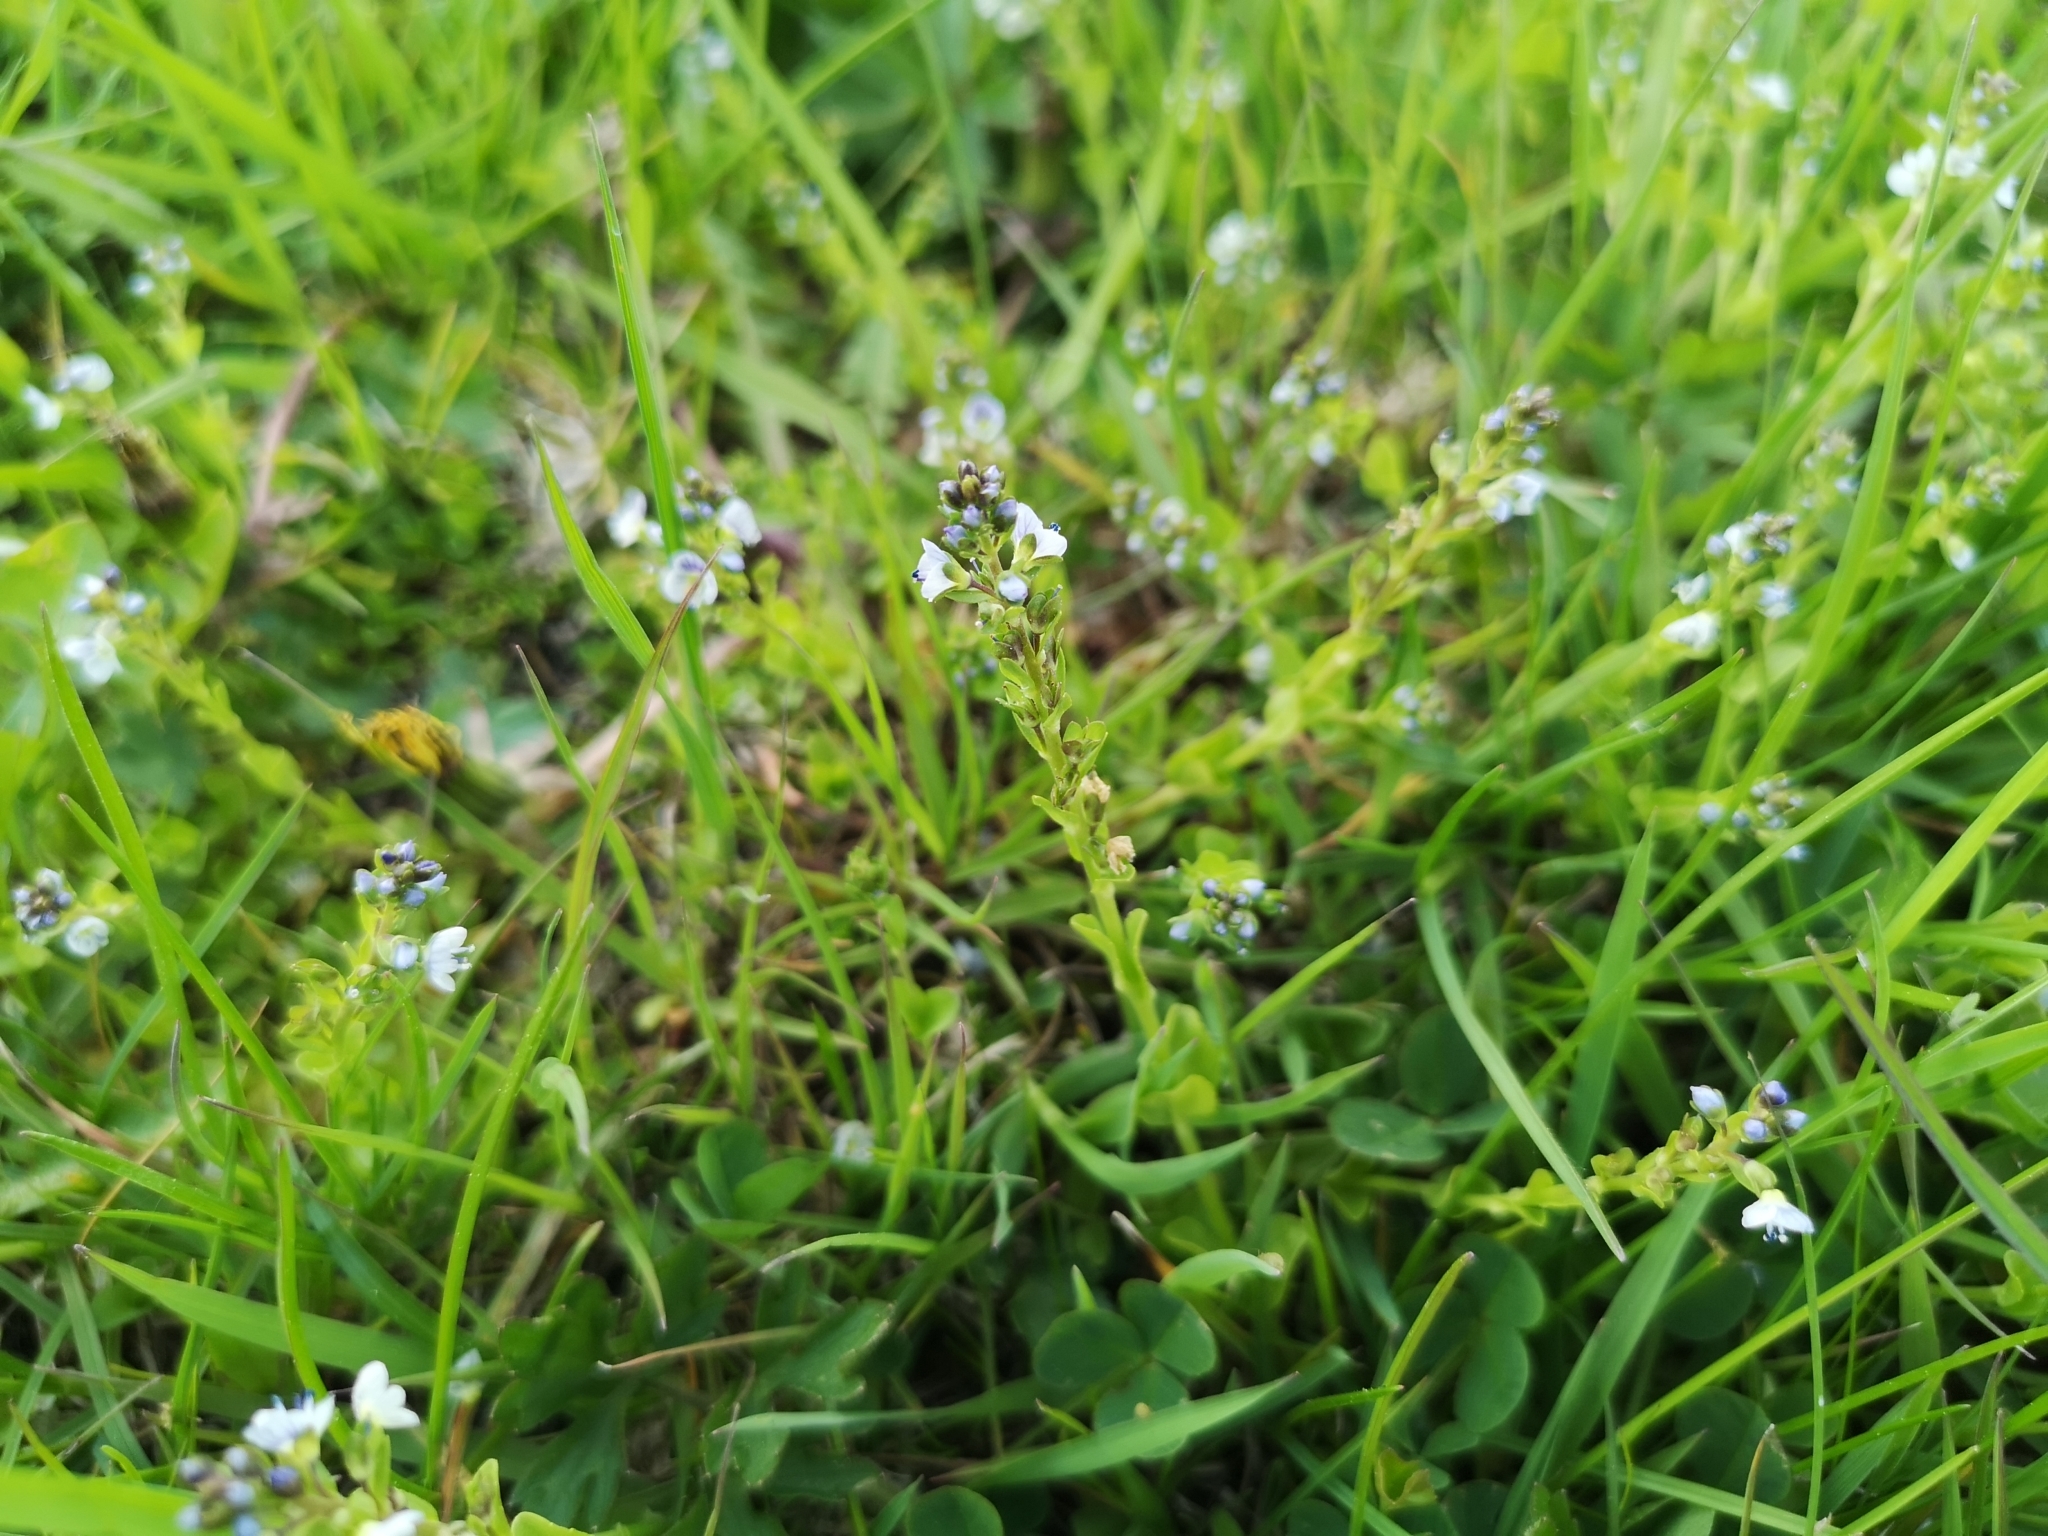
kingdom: Plantae
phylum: Tracheophyta
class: Magnoliopsida
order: Lamiales
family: Plantaginaceae
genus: Veronica
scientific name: Veronica serpyllifolia
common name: Thyme-leaved speedwell
